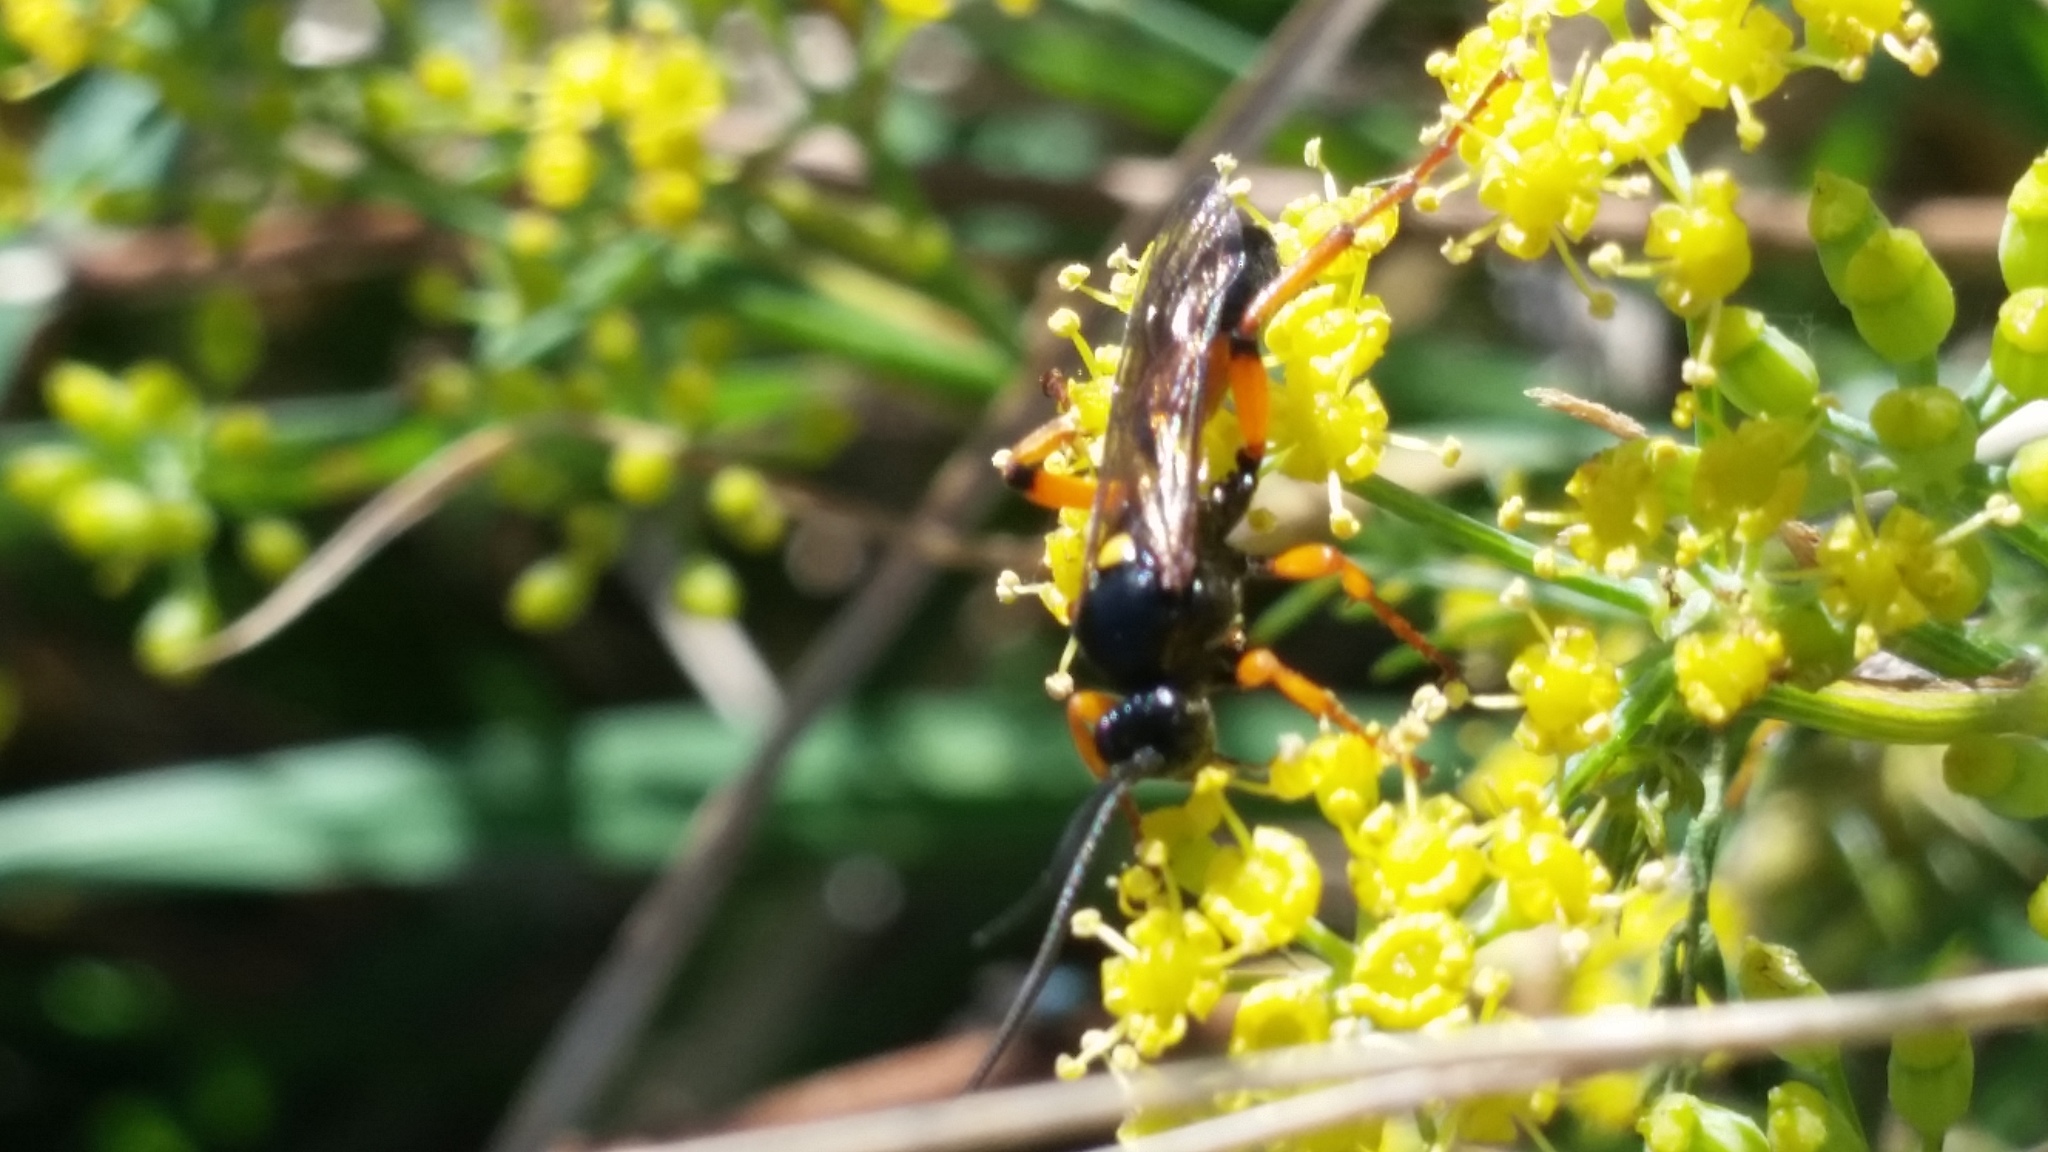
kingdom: Animalia
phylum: Arthropoda
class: Insecta
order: Hymenoptera
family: Ichneumonidae
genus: Ichneumon
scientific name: Ichneumon lotatorius
